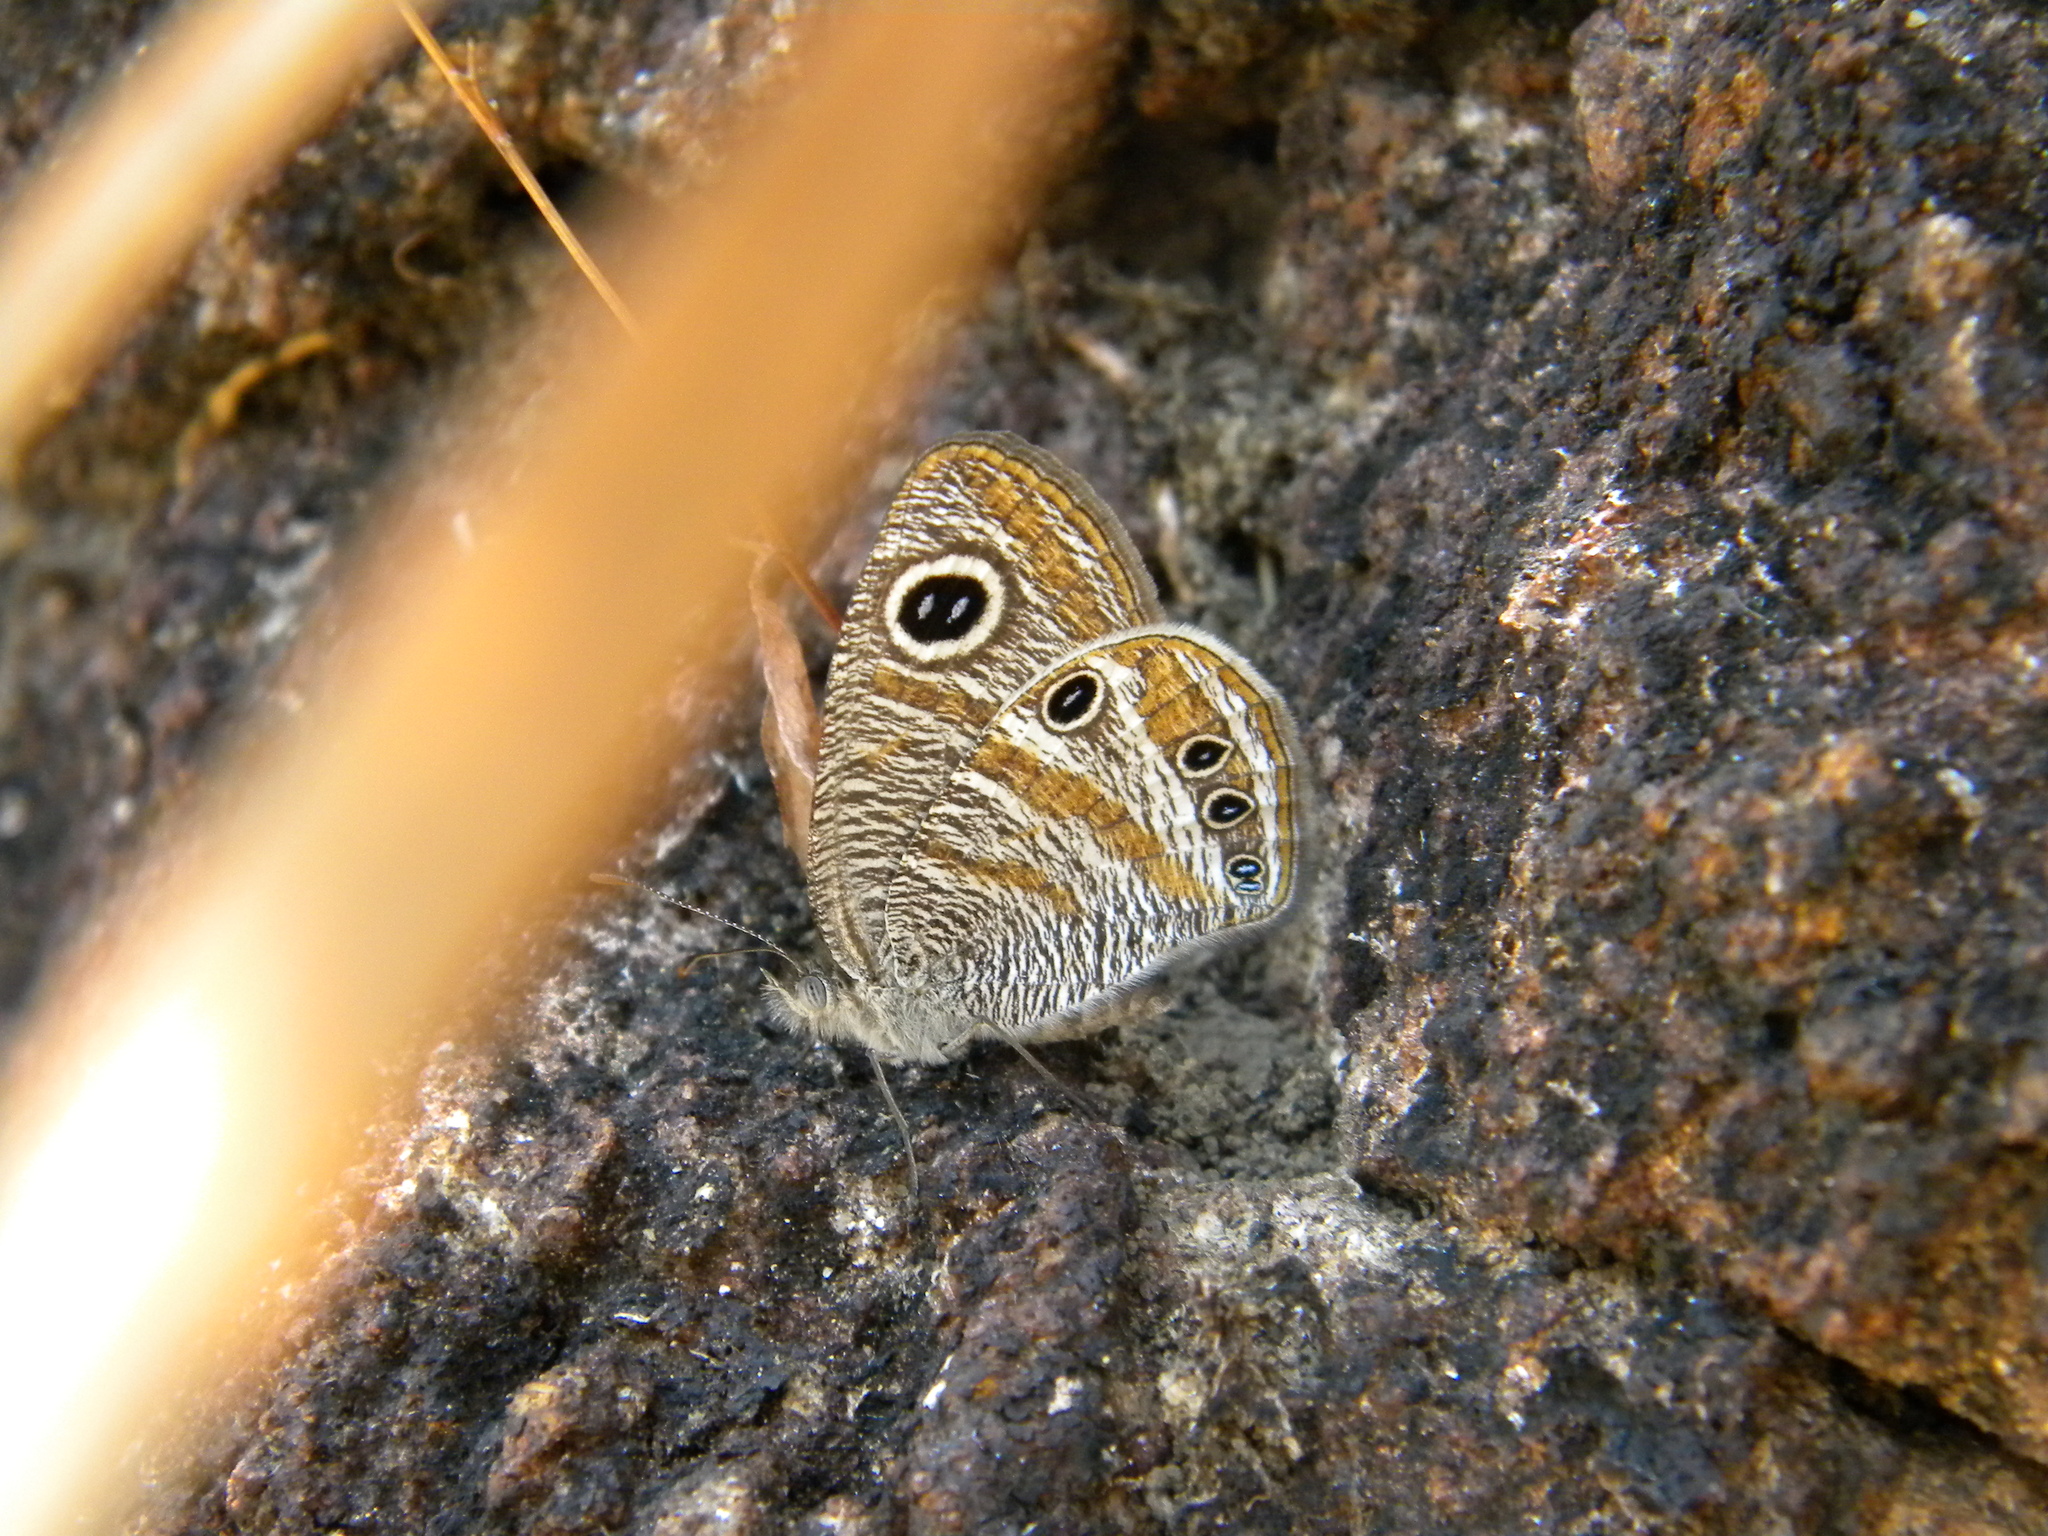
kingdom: Animalia
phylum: Arthropoda
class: Insecta
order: Lepidoptera
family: Nymphalidae
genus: Ypthima
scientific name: Ypthima chenu
